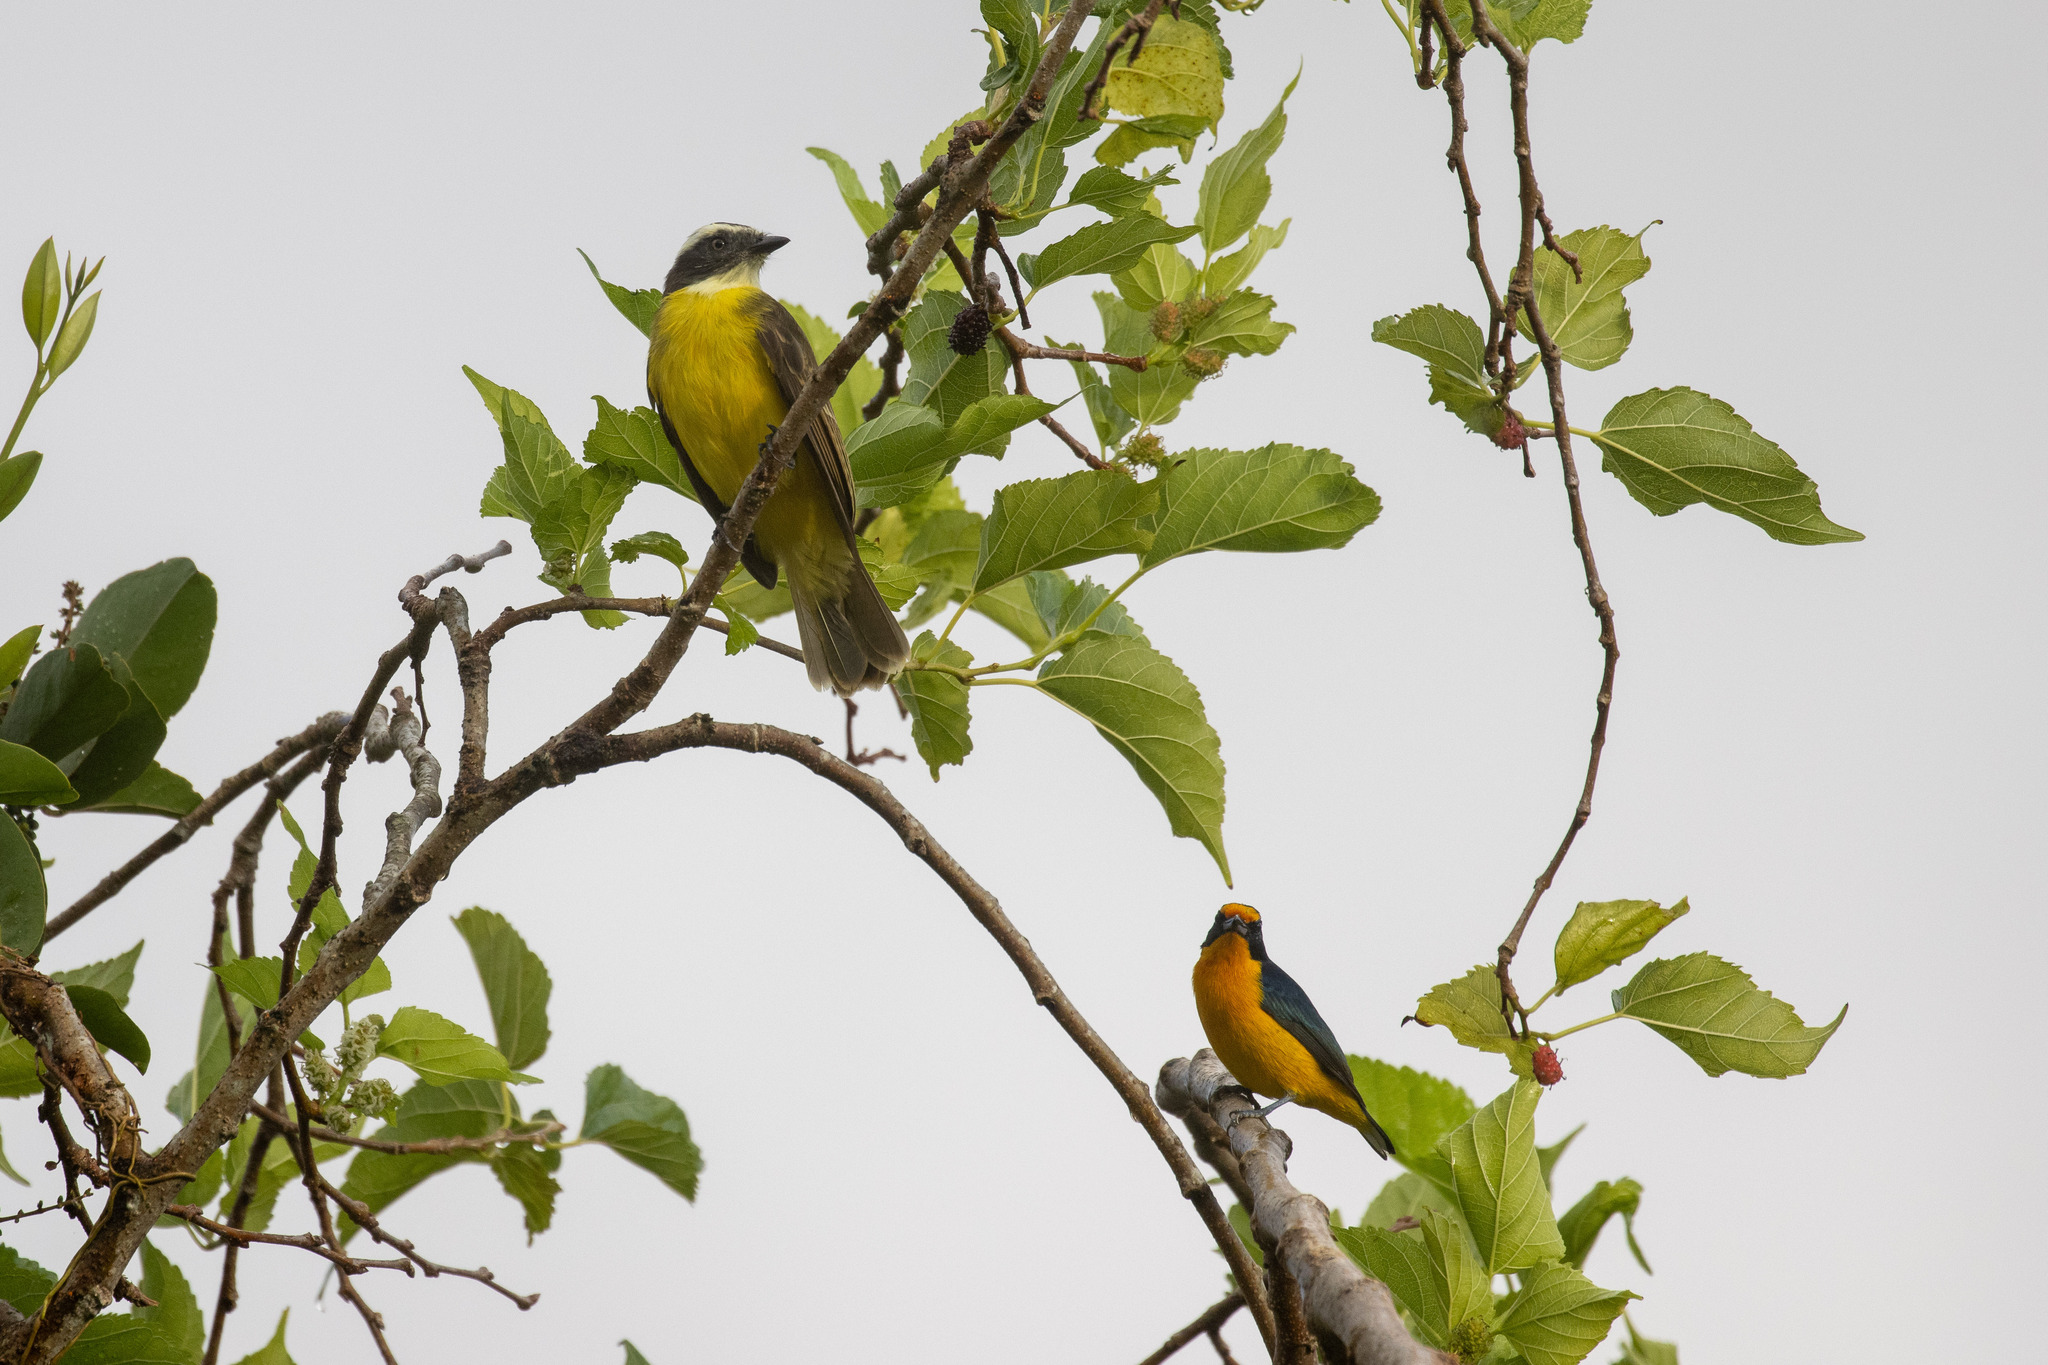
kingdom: Animalia
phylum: Chordata
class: Aves
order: Passeriformes
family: Tyrannidae
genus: Myiozetetes
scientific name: Myiozetetes similis
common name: Social flycatcher
